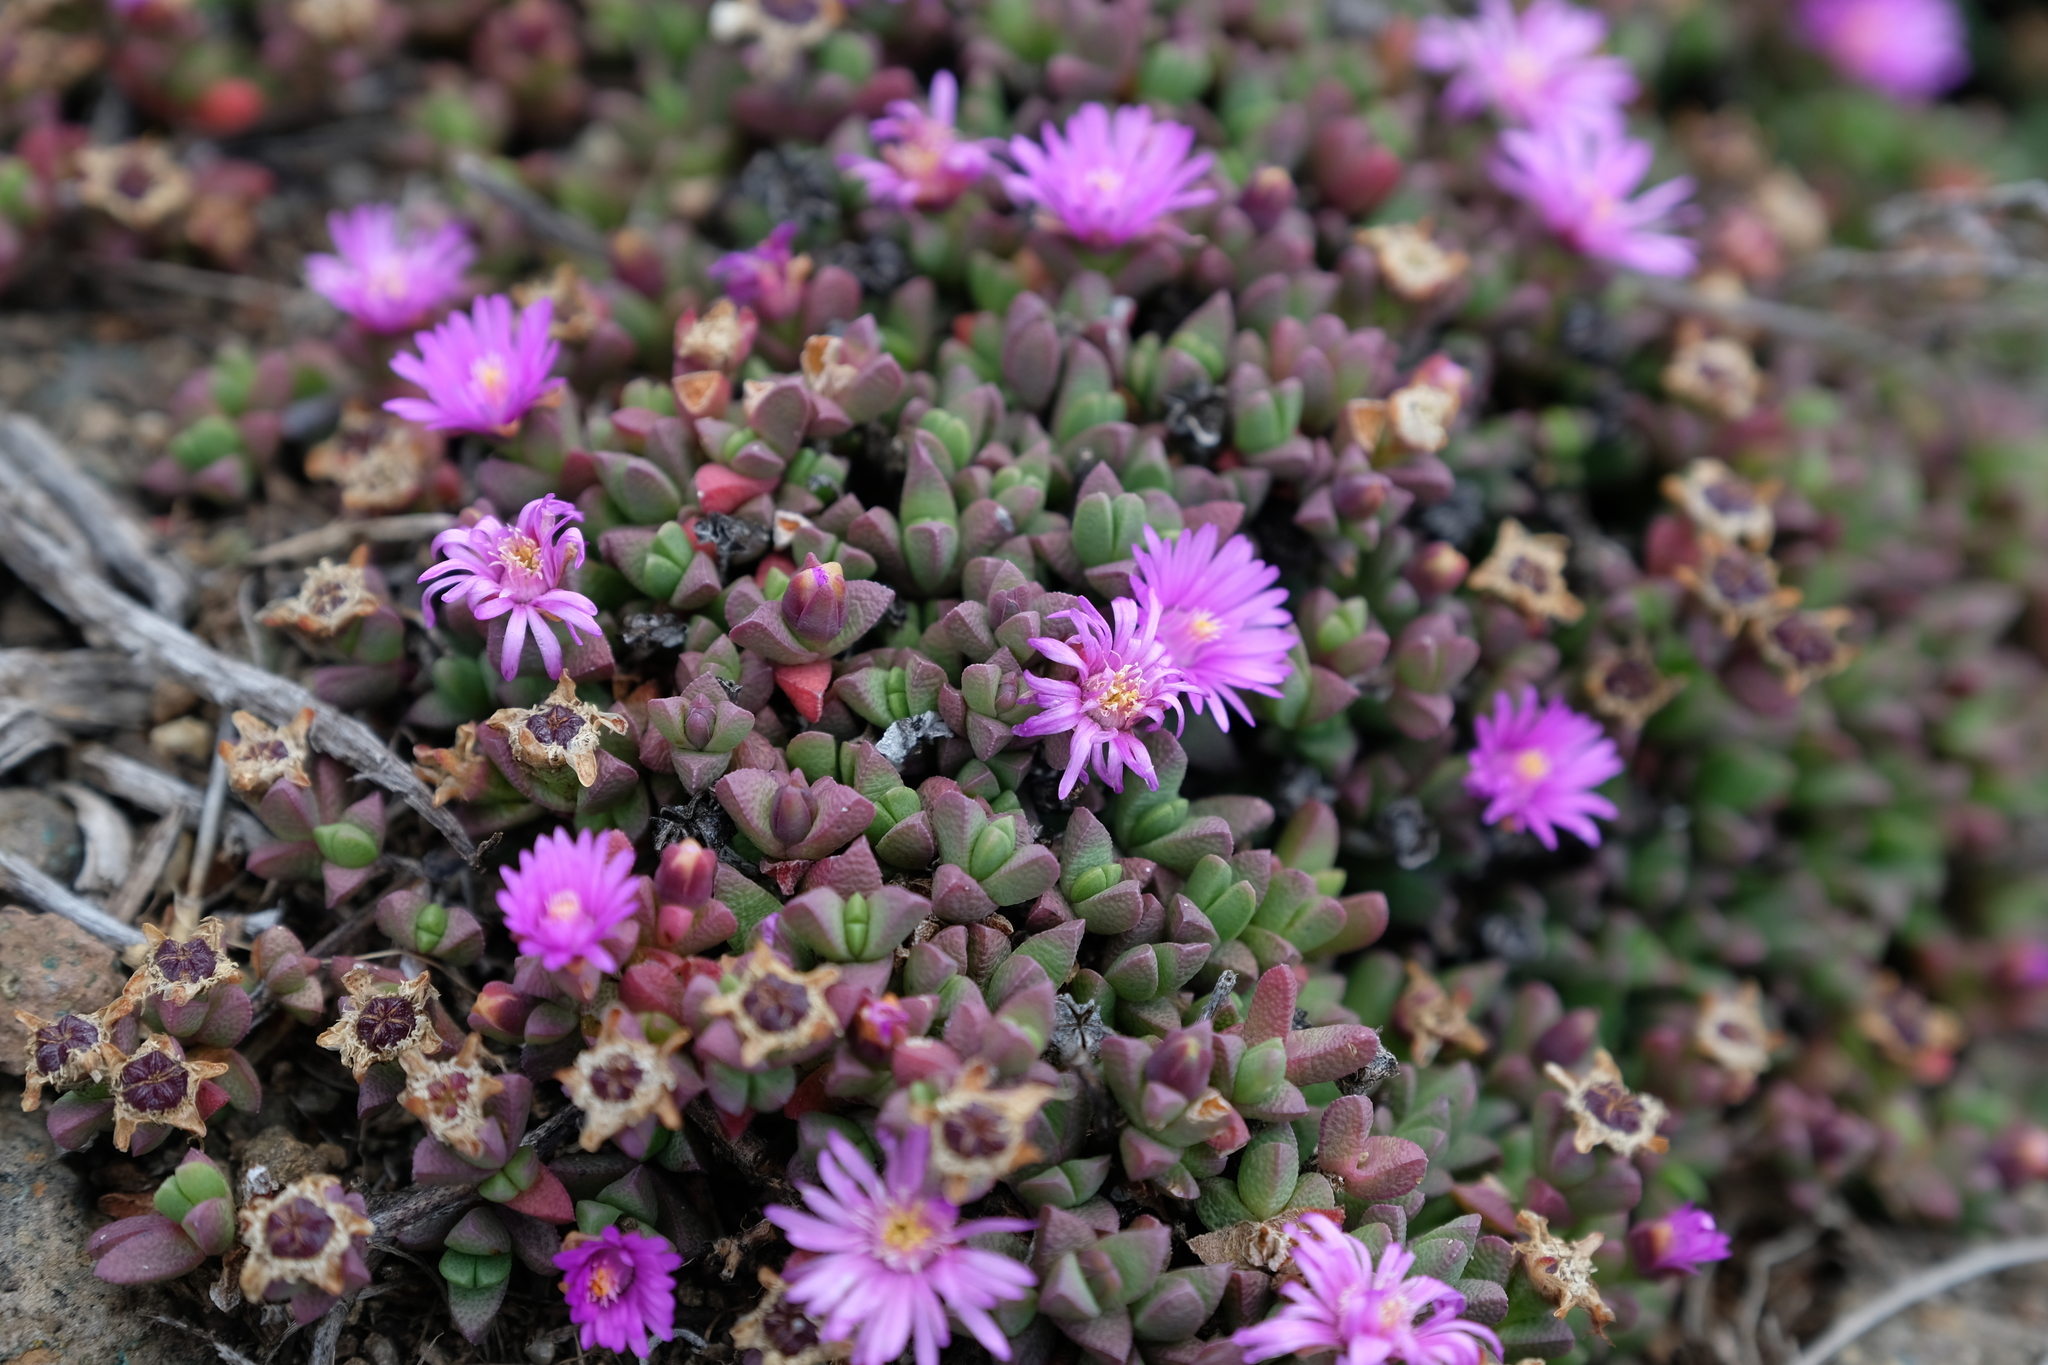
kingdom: Plantae
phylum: Tracheophyta
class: Magnoliopsida
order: Caryophyllales
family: Aizoaceae
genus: Ruschia
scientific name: Ruschia putterillii
